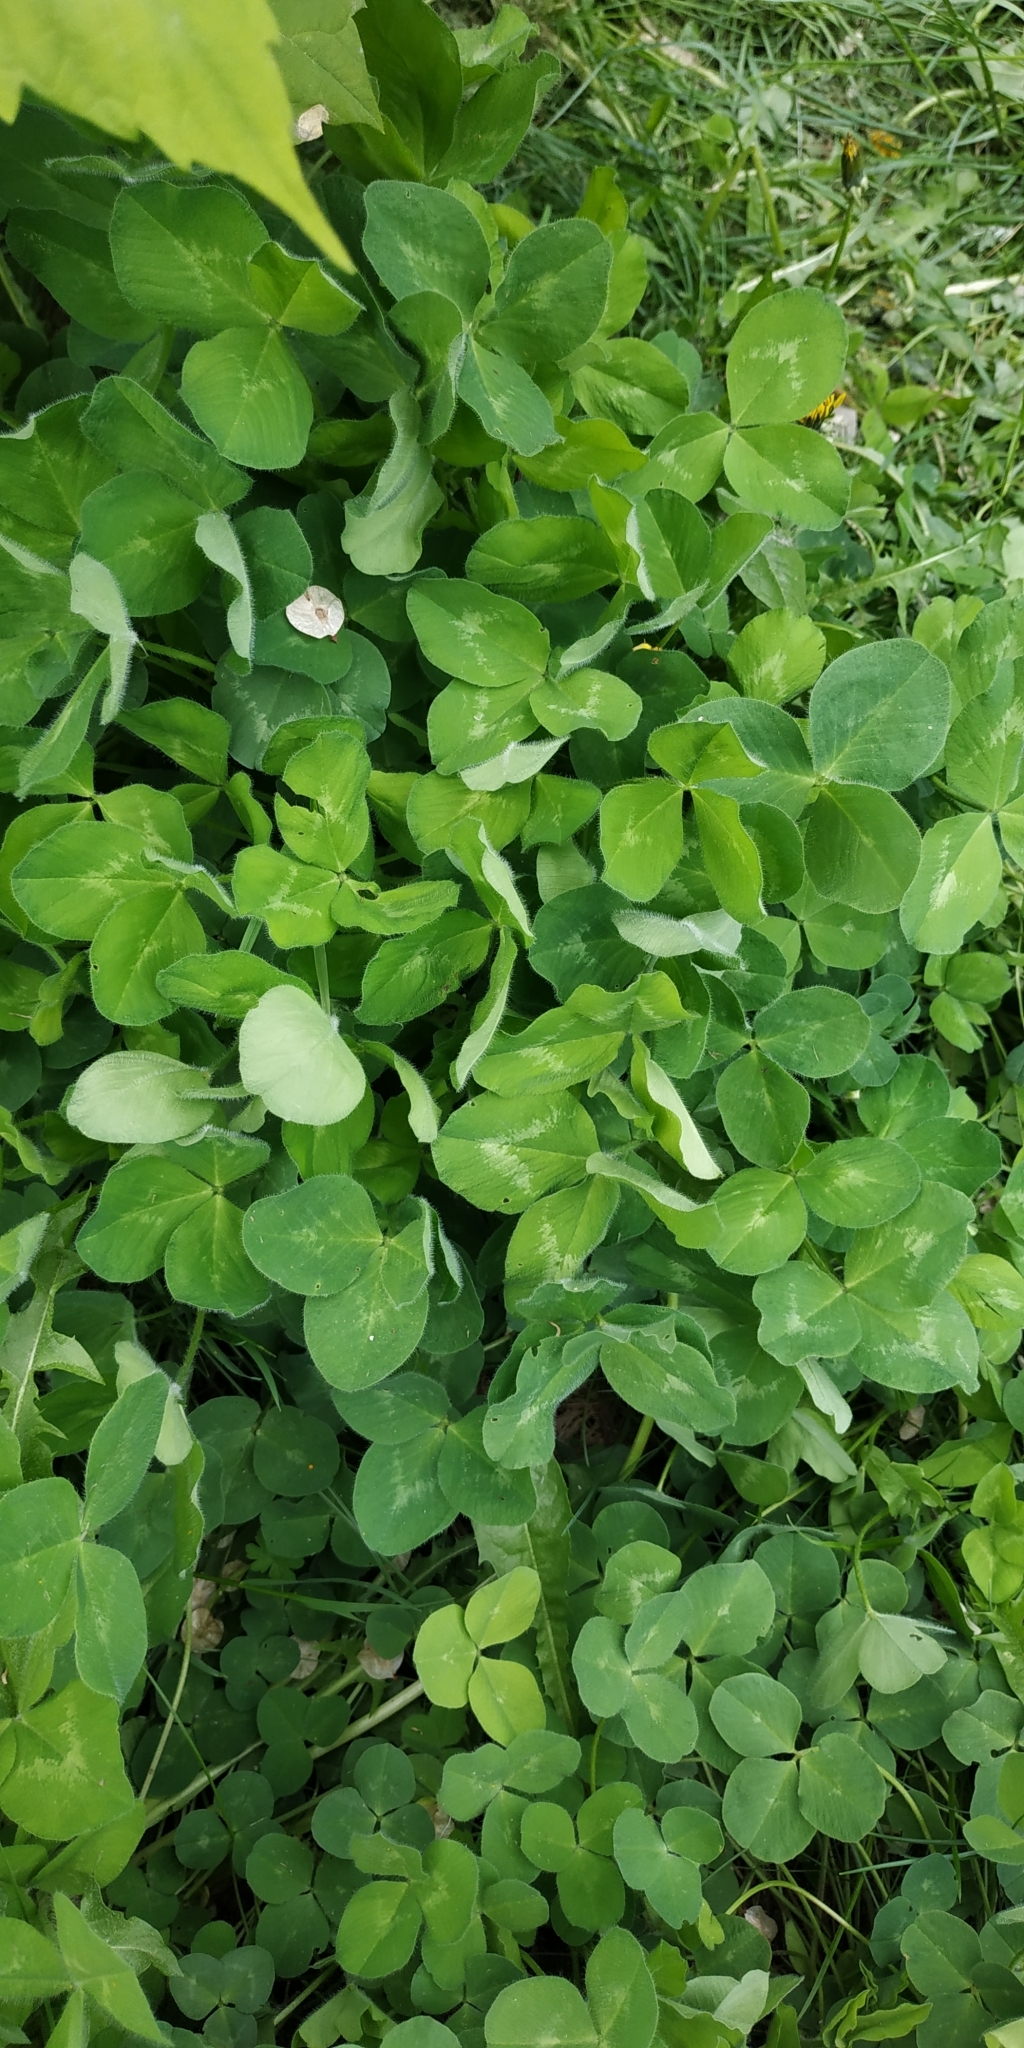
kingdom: Plantae
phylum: Tracheophyta
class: Magnoliopsida
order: Fabales
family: Fabaceae
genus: Trifolium
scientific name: Trifolium pratense
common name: Red clover
